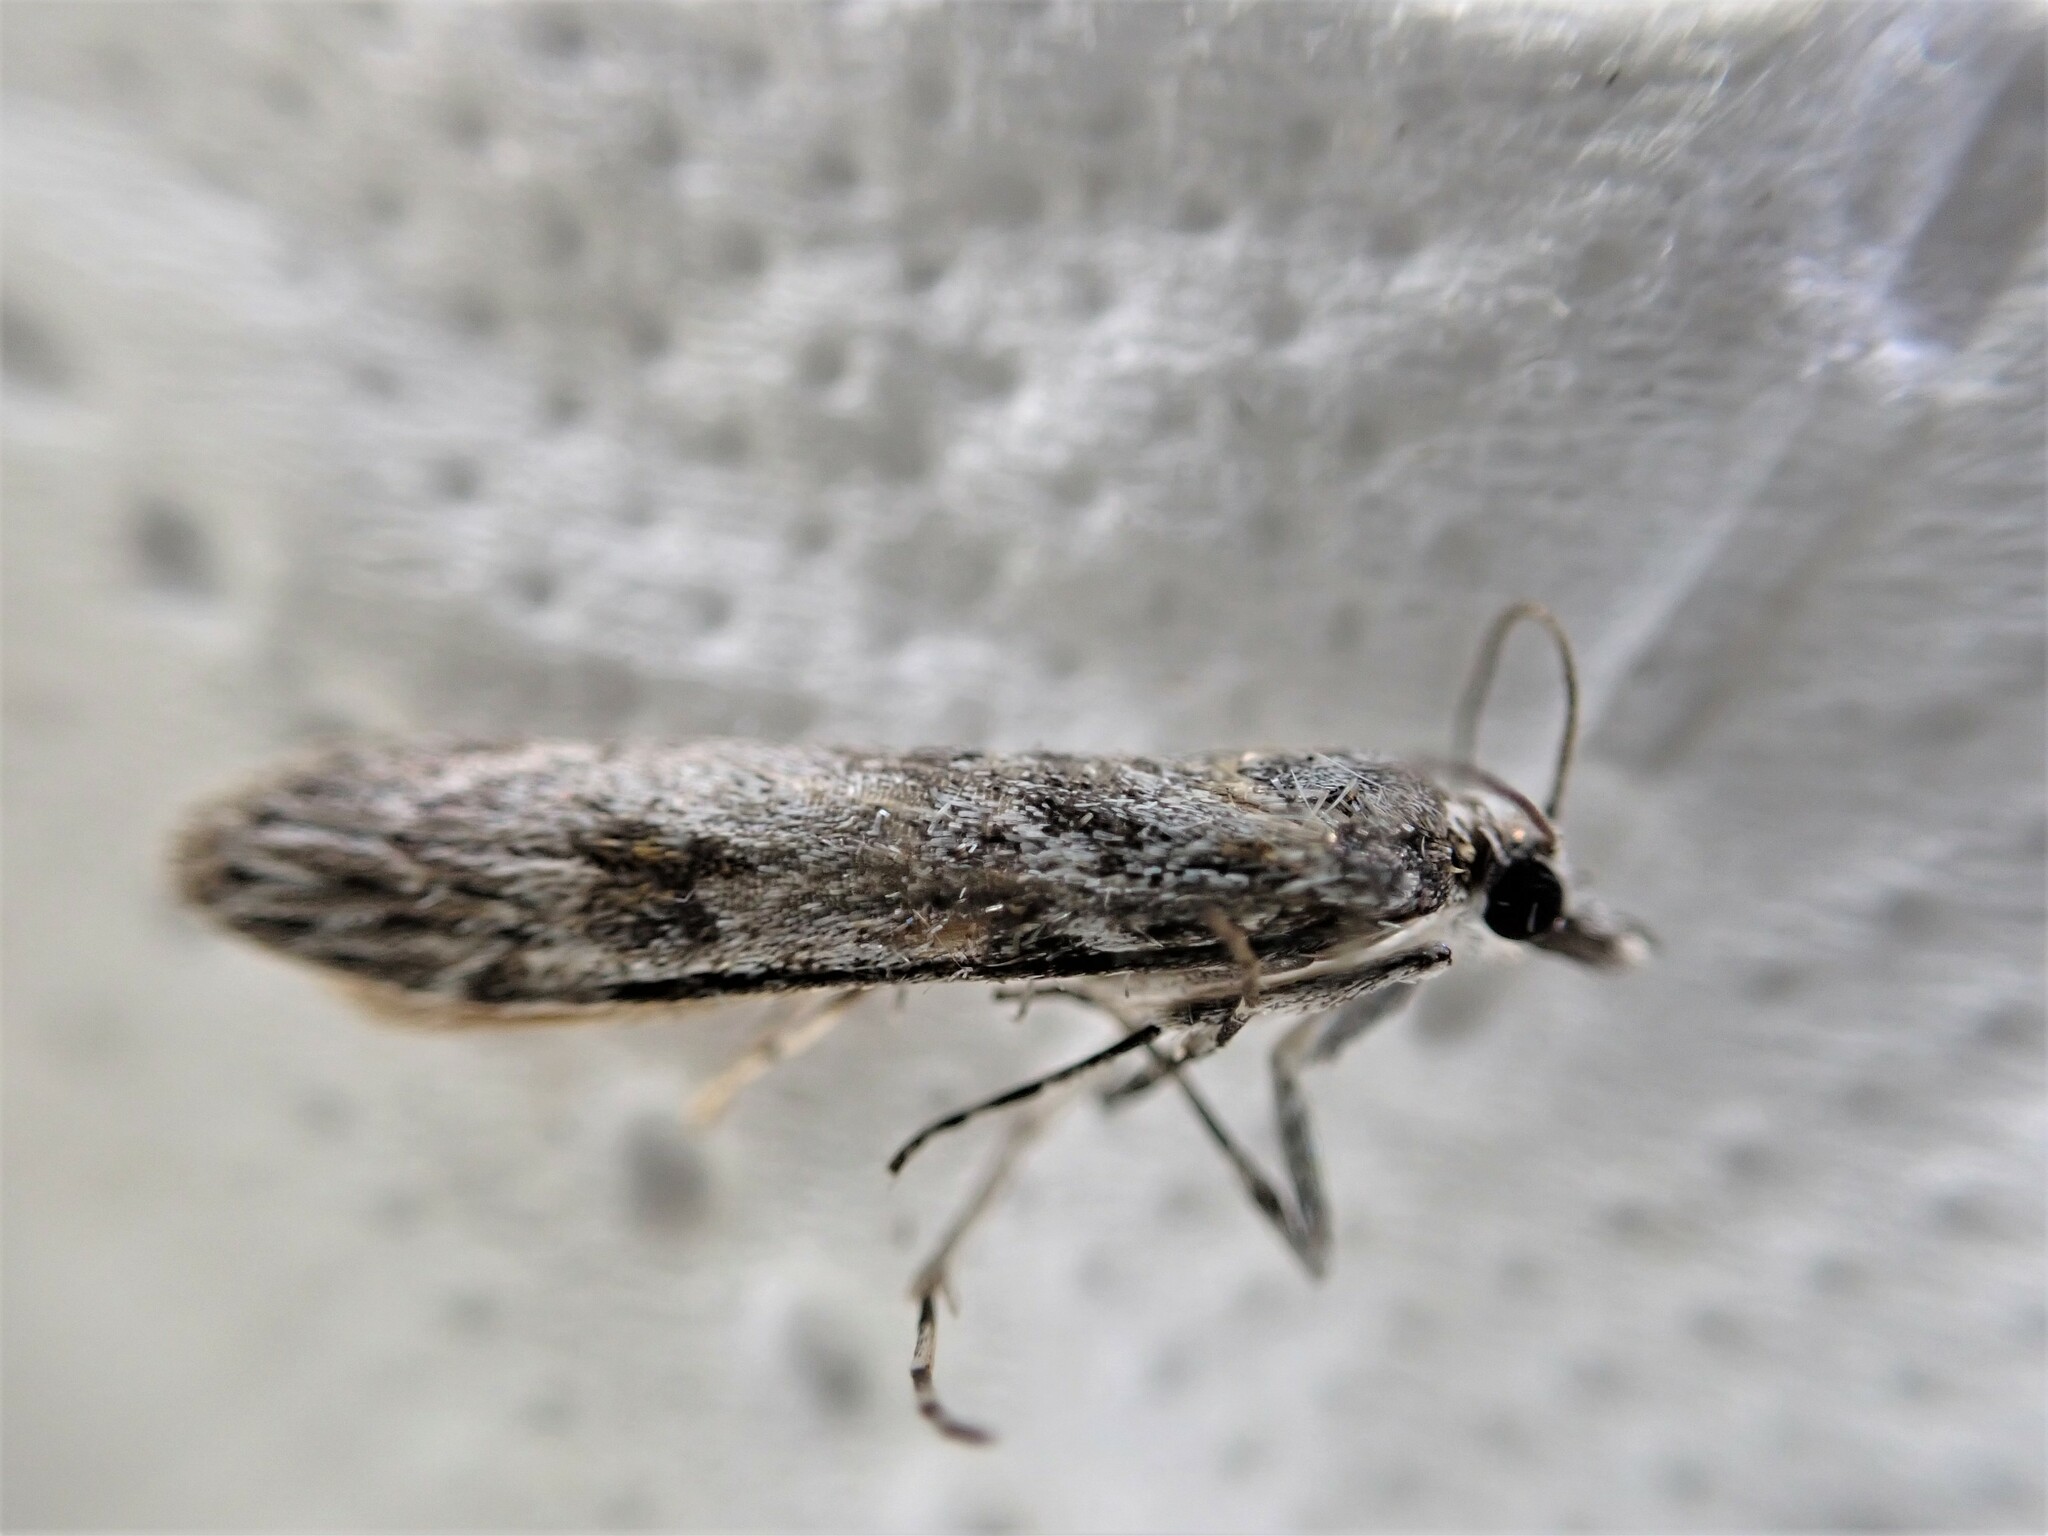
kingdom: Animalia
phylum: Arthropoda
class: Insecta
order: Lepidoptera
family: Crambidae
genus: Scoparia
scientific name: Scoparia halopis
